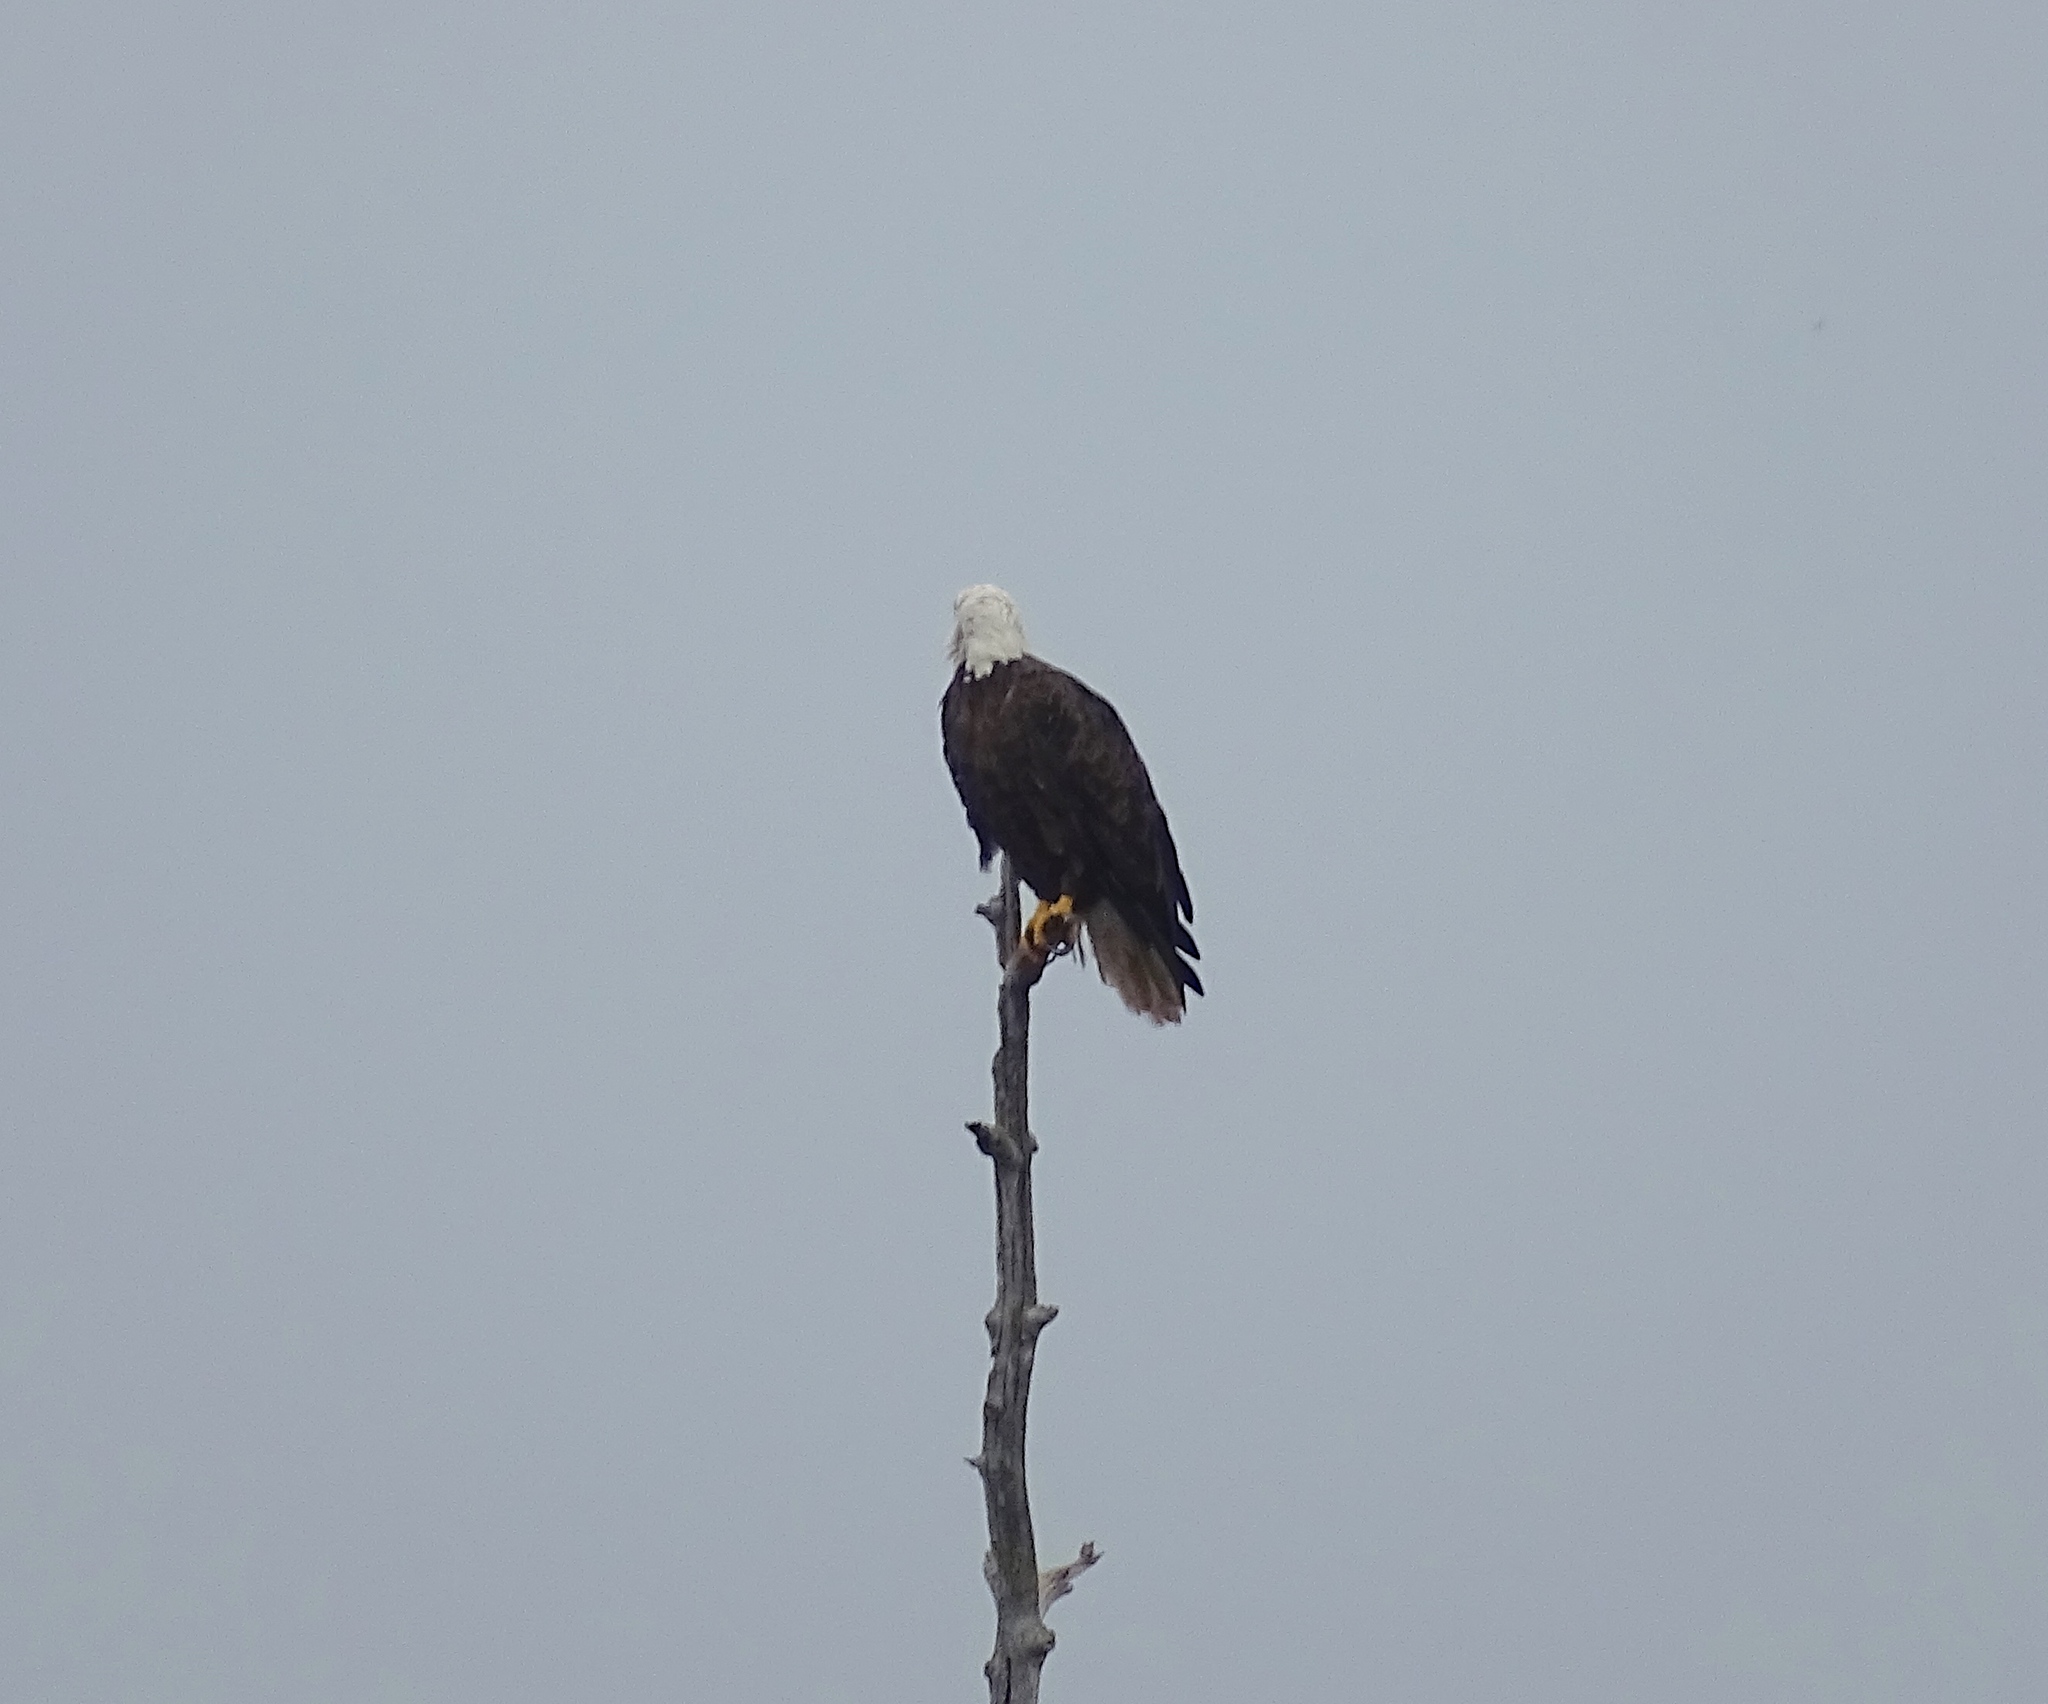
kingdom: Animalia
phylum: Chordata
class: Aves
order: Accipitriformes
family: Accipitridae
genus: Haliaeetus
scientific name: Haliaeetus leucocephalus
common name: Bald eagle
